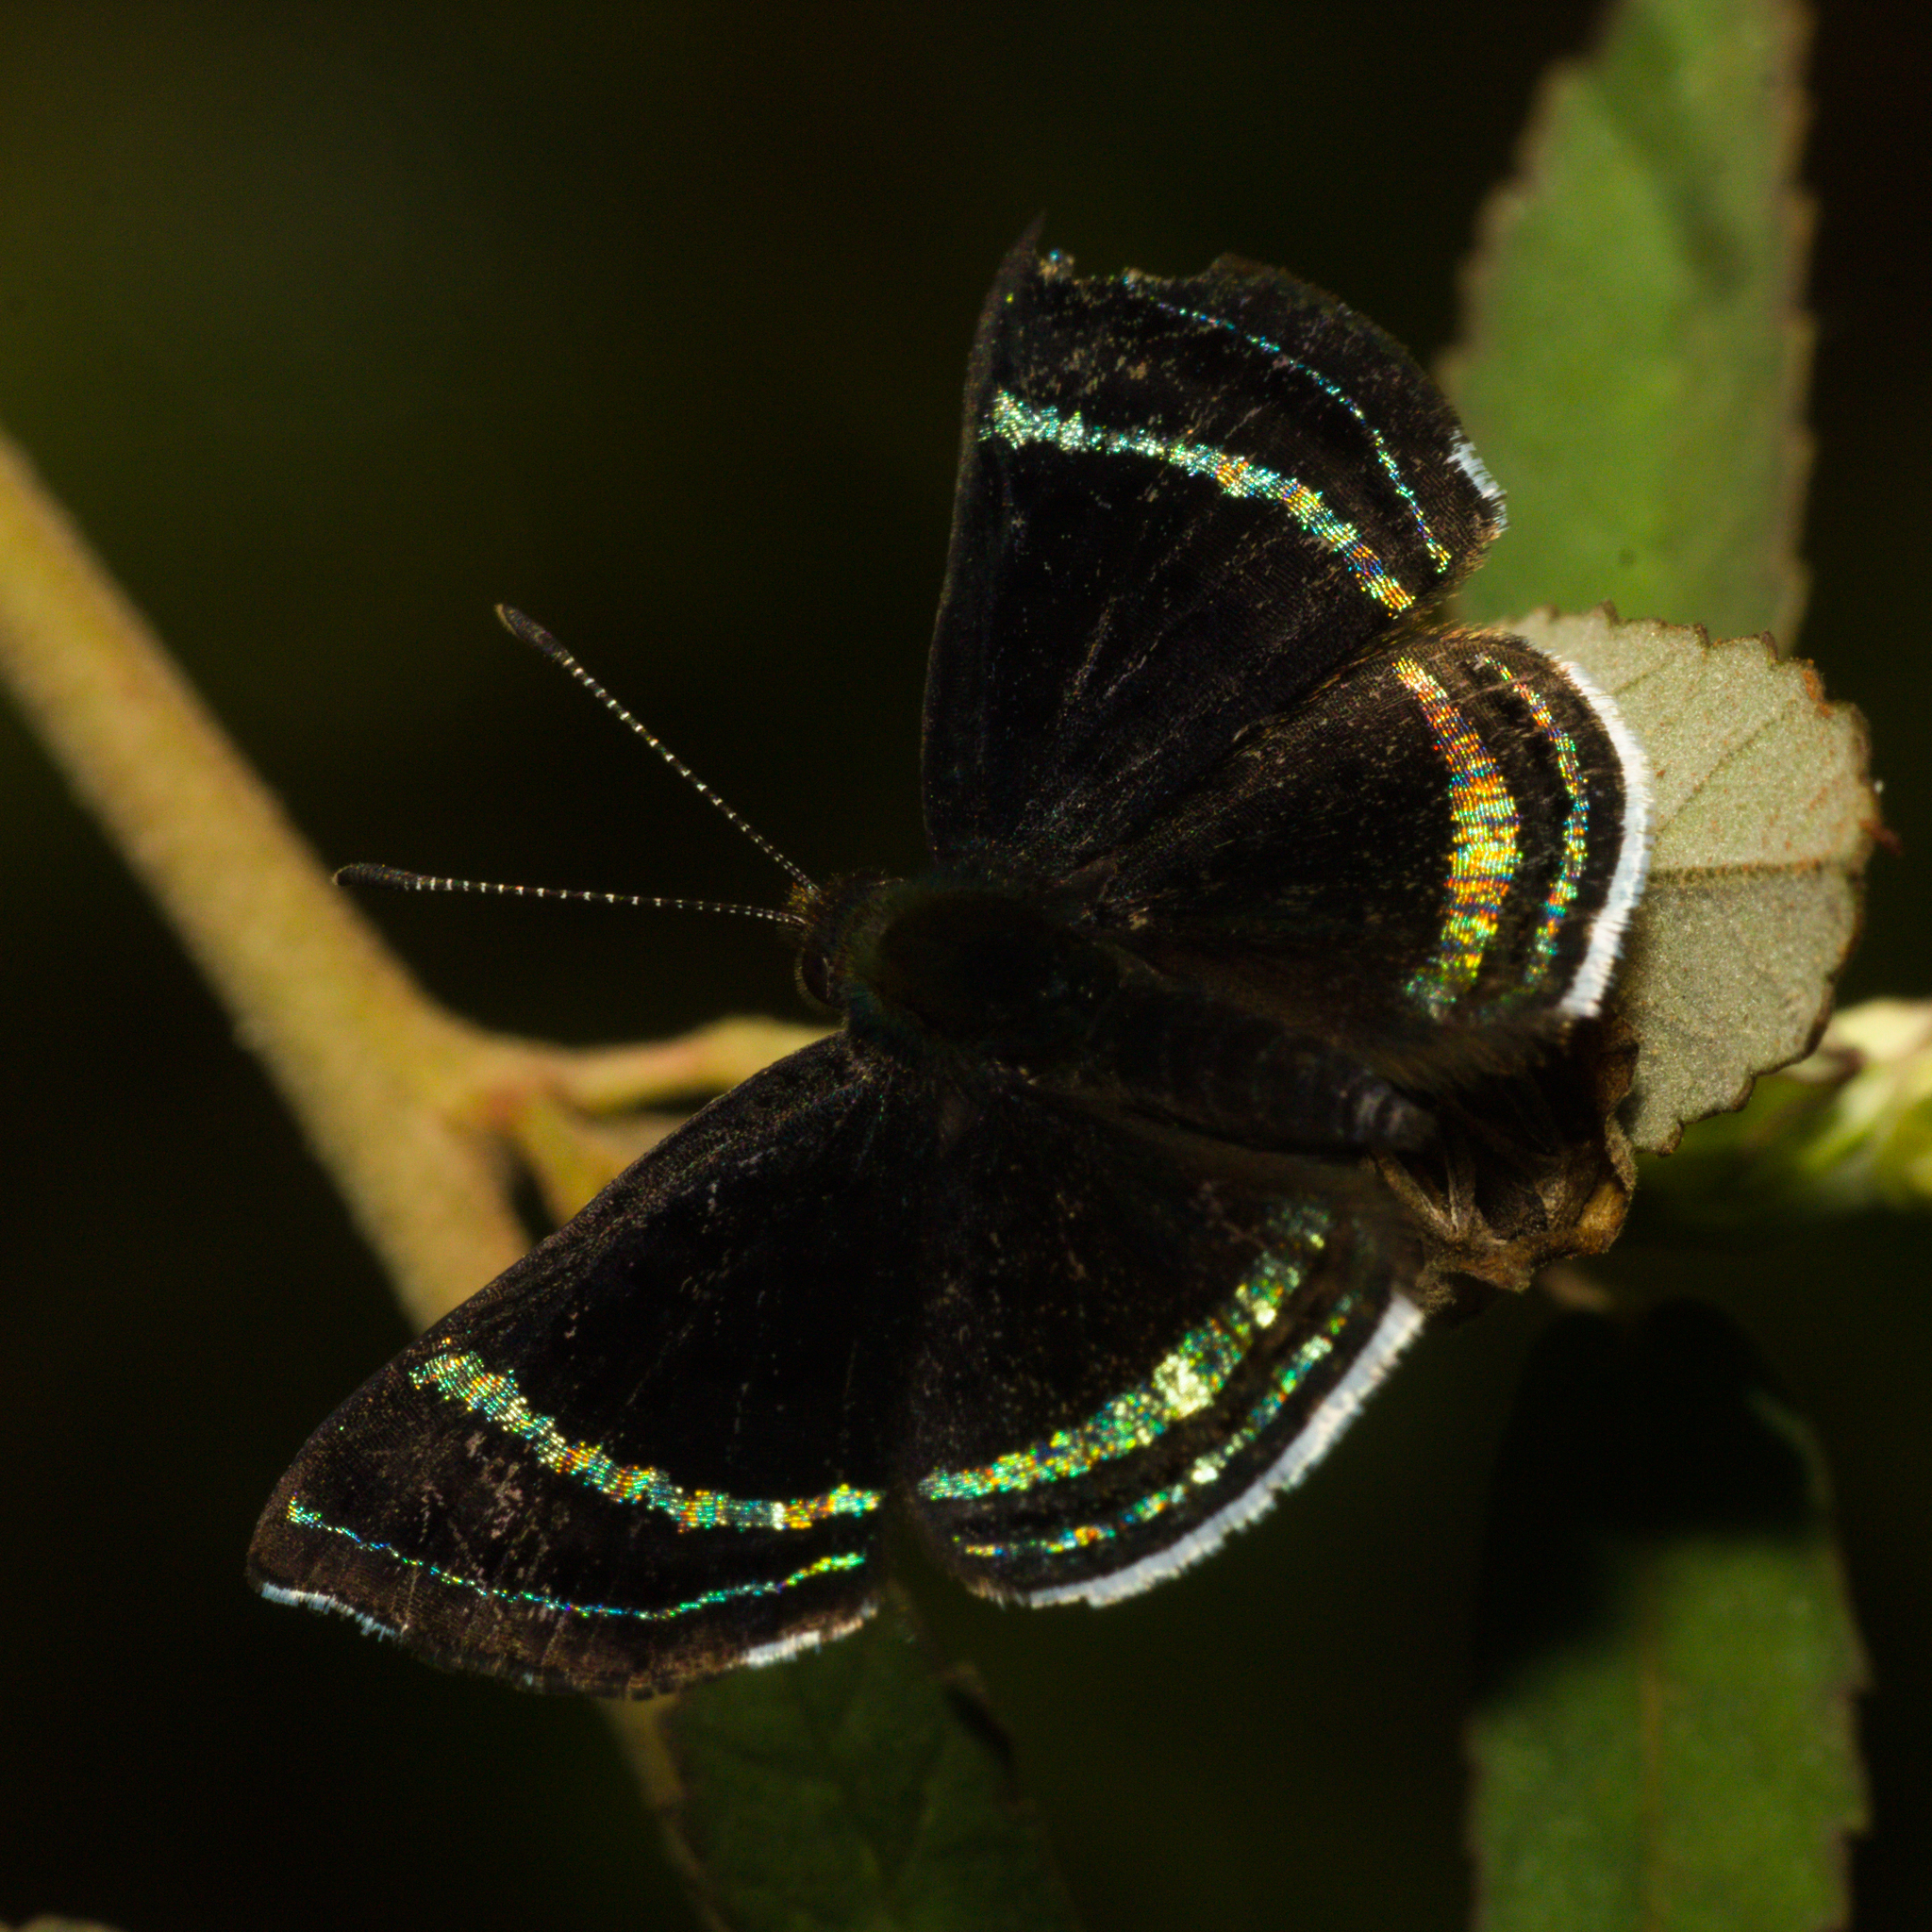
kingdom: Animalia
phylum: Arthropoda
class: Insecta
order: Lepidoptera
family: Riodinidae
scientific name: Riodinidae
